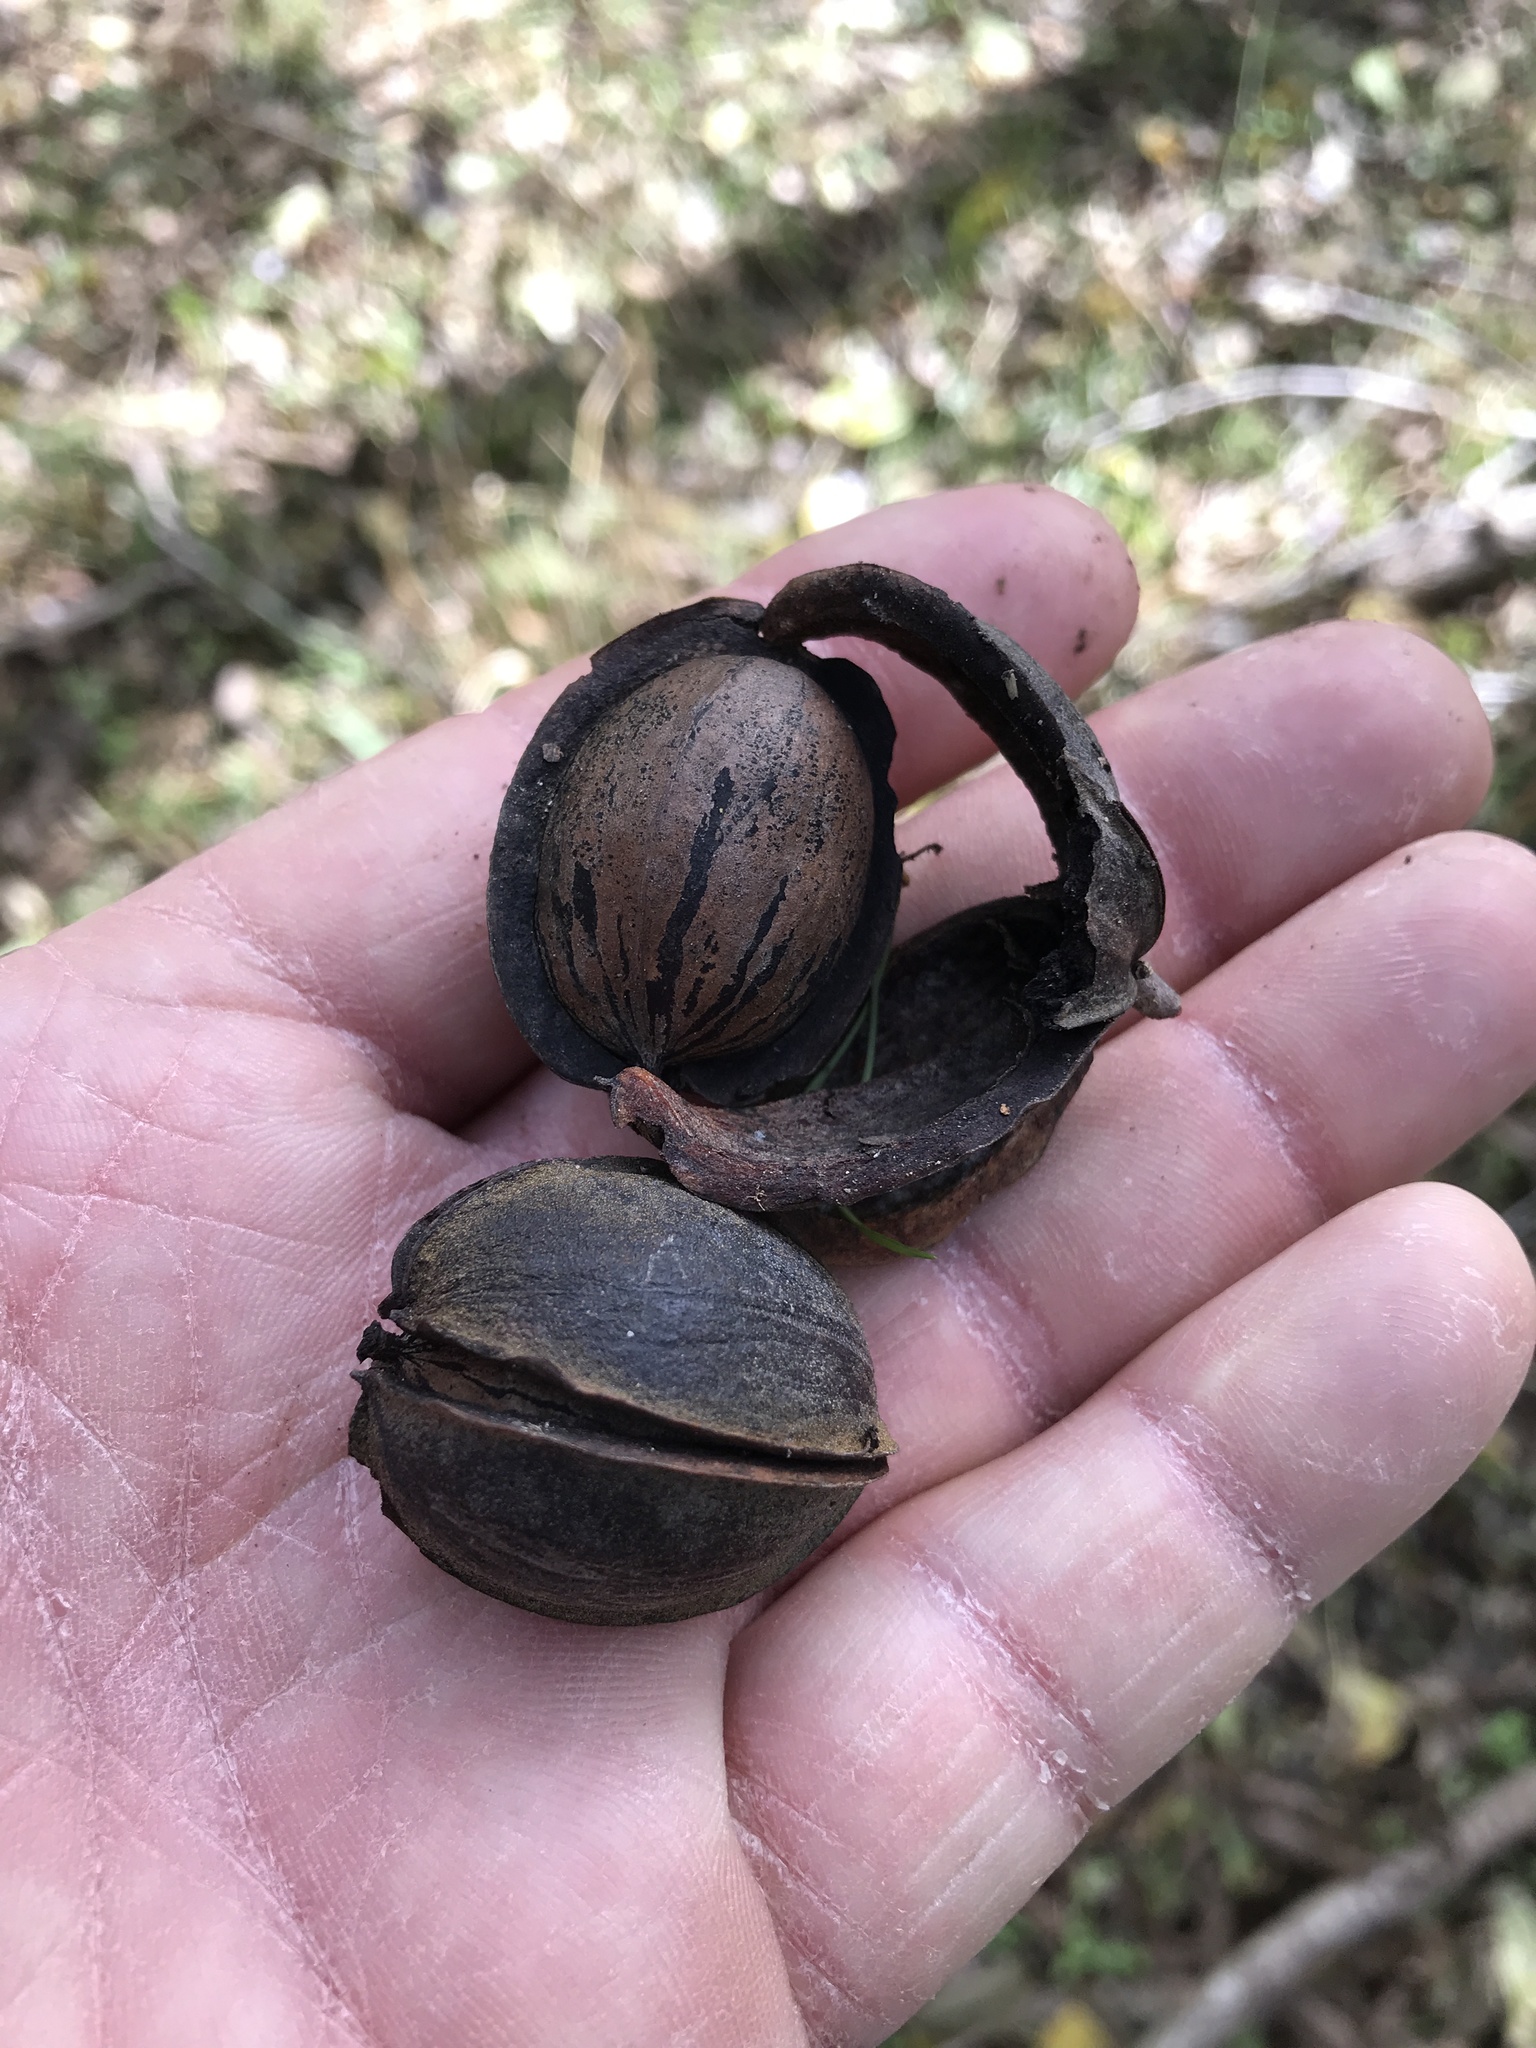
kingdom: Plantae
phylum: Tracheophyta
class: Magnoliopsida
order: Fagales
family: Juglandaceae
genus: Carya
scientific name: Carya illinoinensis
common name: Pecan
